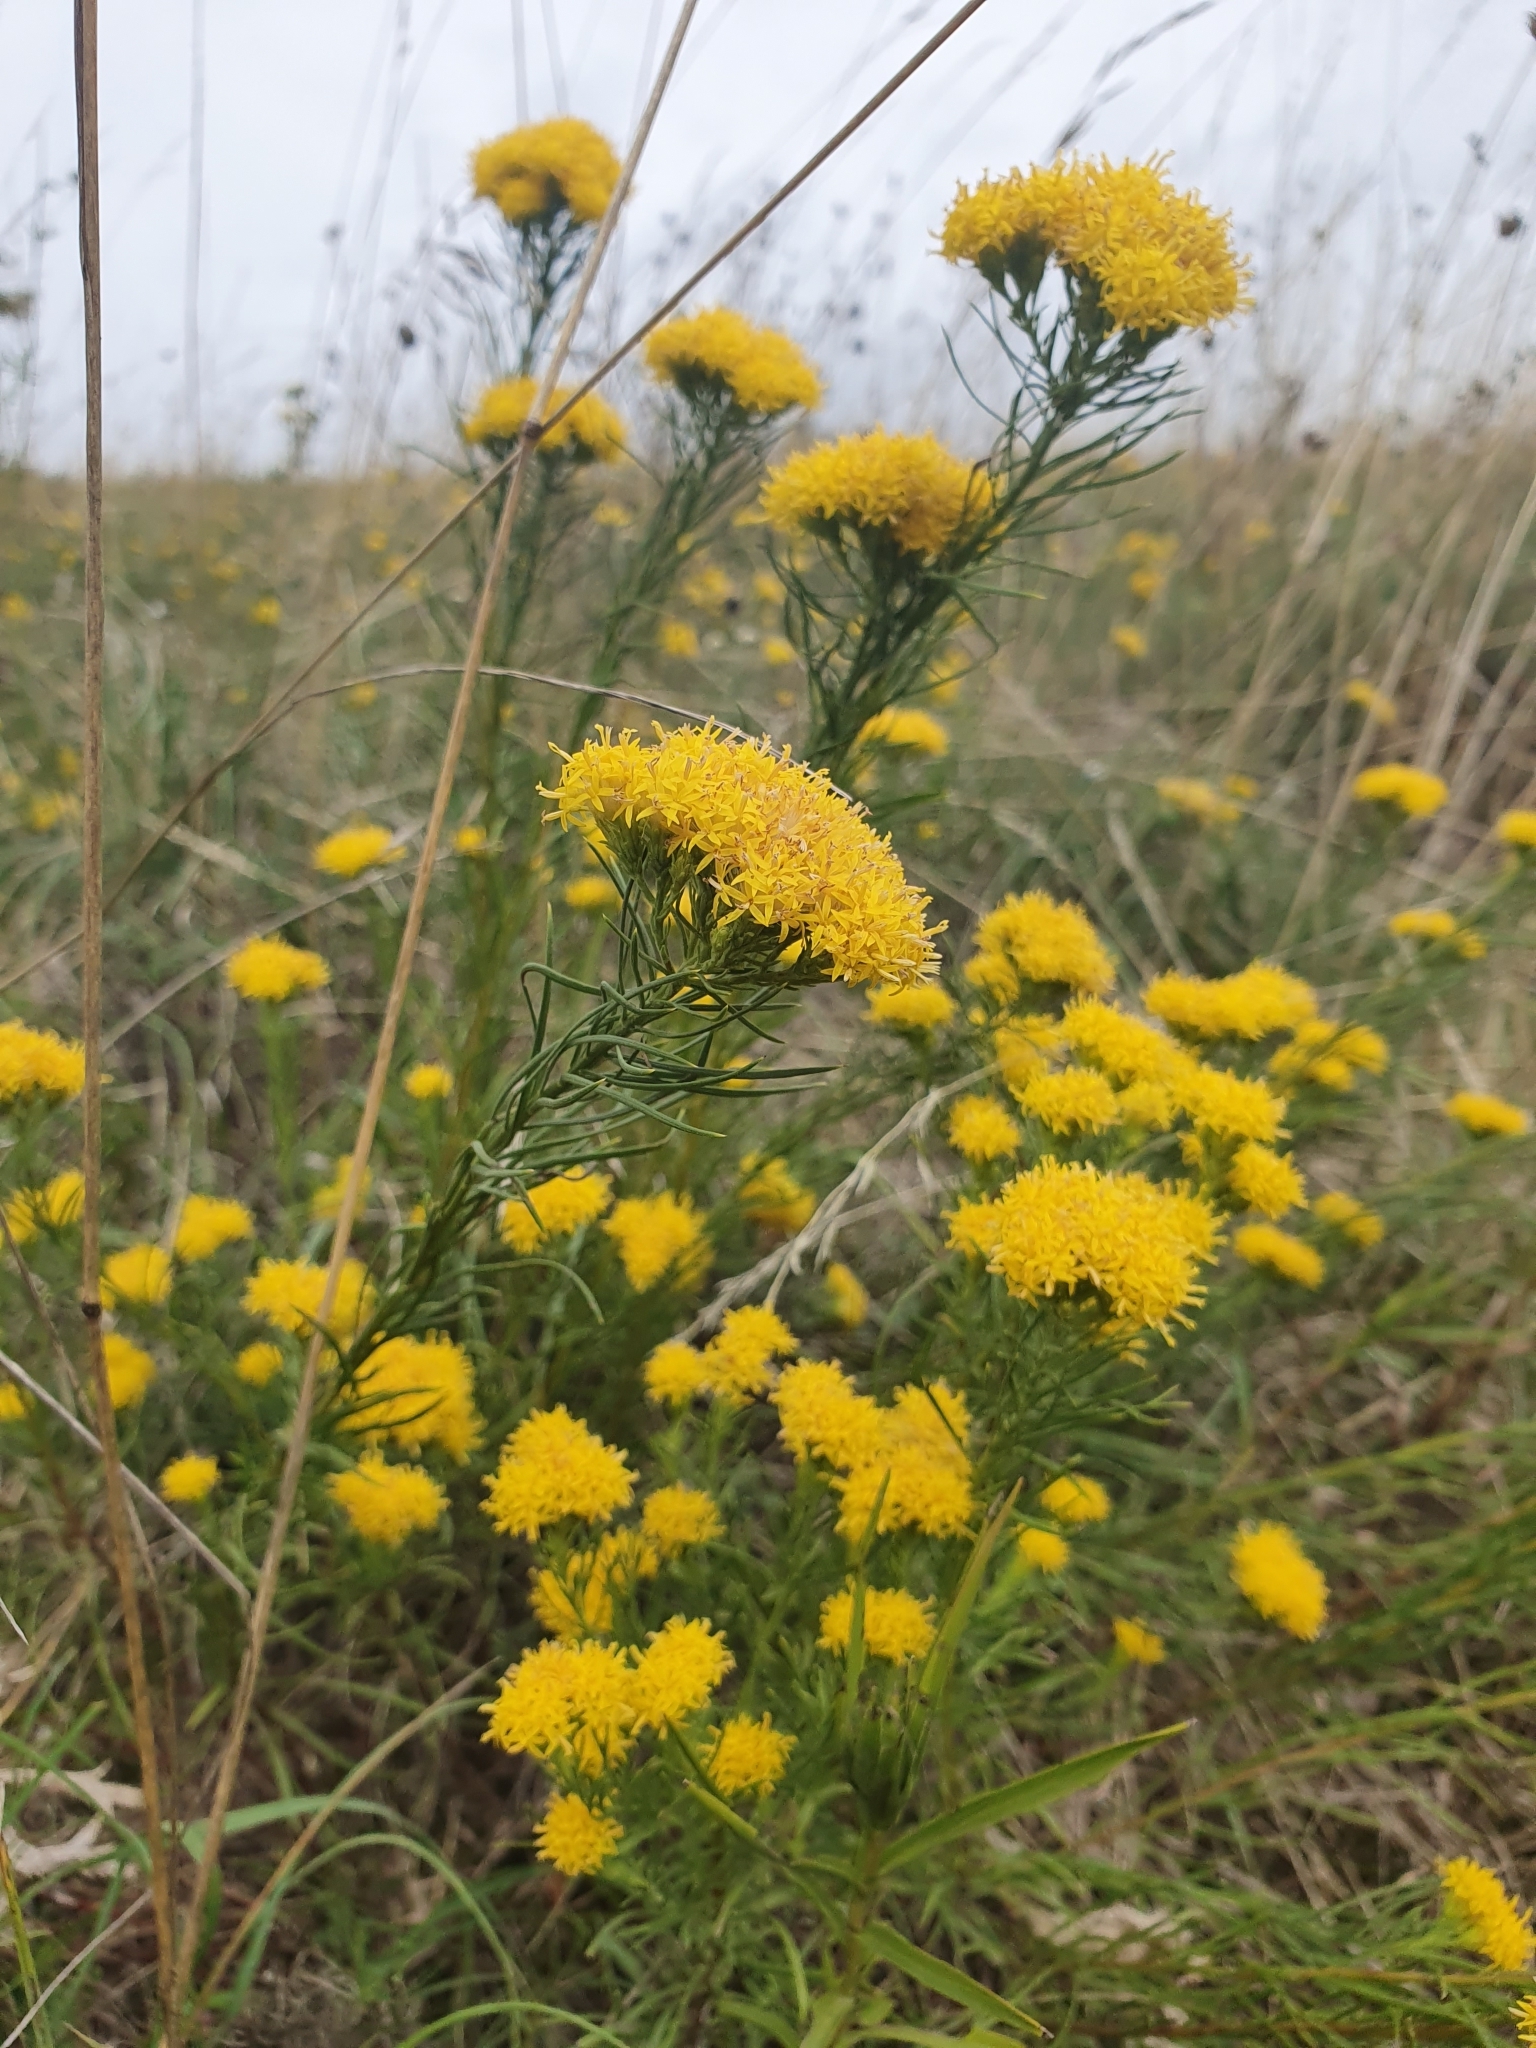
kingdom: Plantae
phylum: Tracheophyta
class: Magnoliopsida
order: Asterales
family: Asteraceae
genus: Galatella
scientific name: Galatella linosyris
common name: Goldilocks aster
